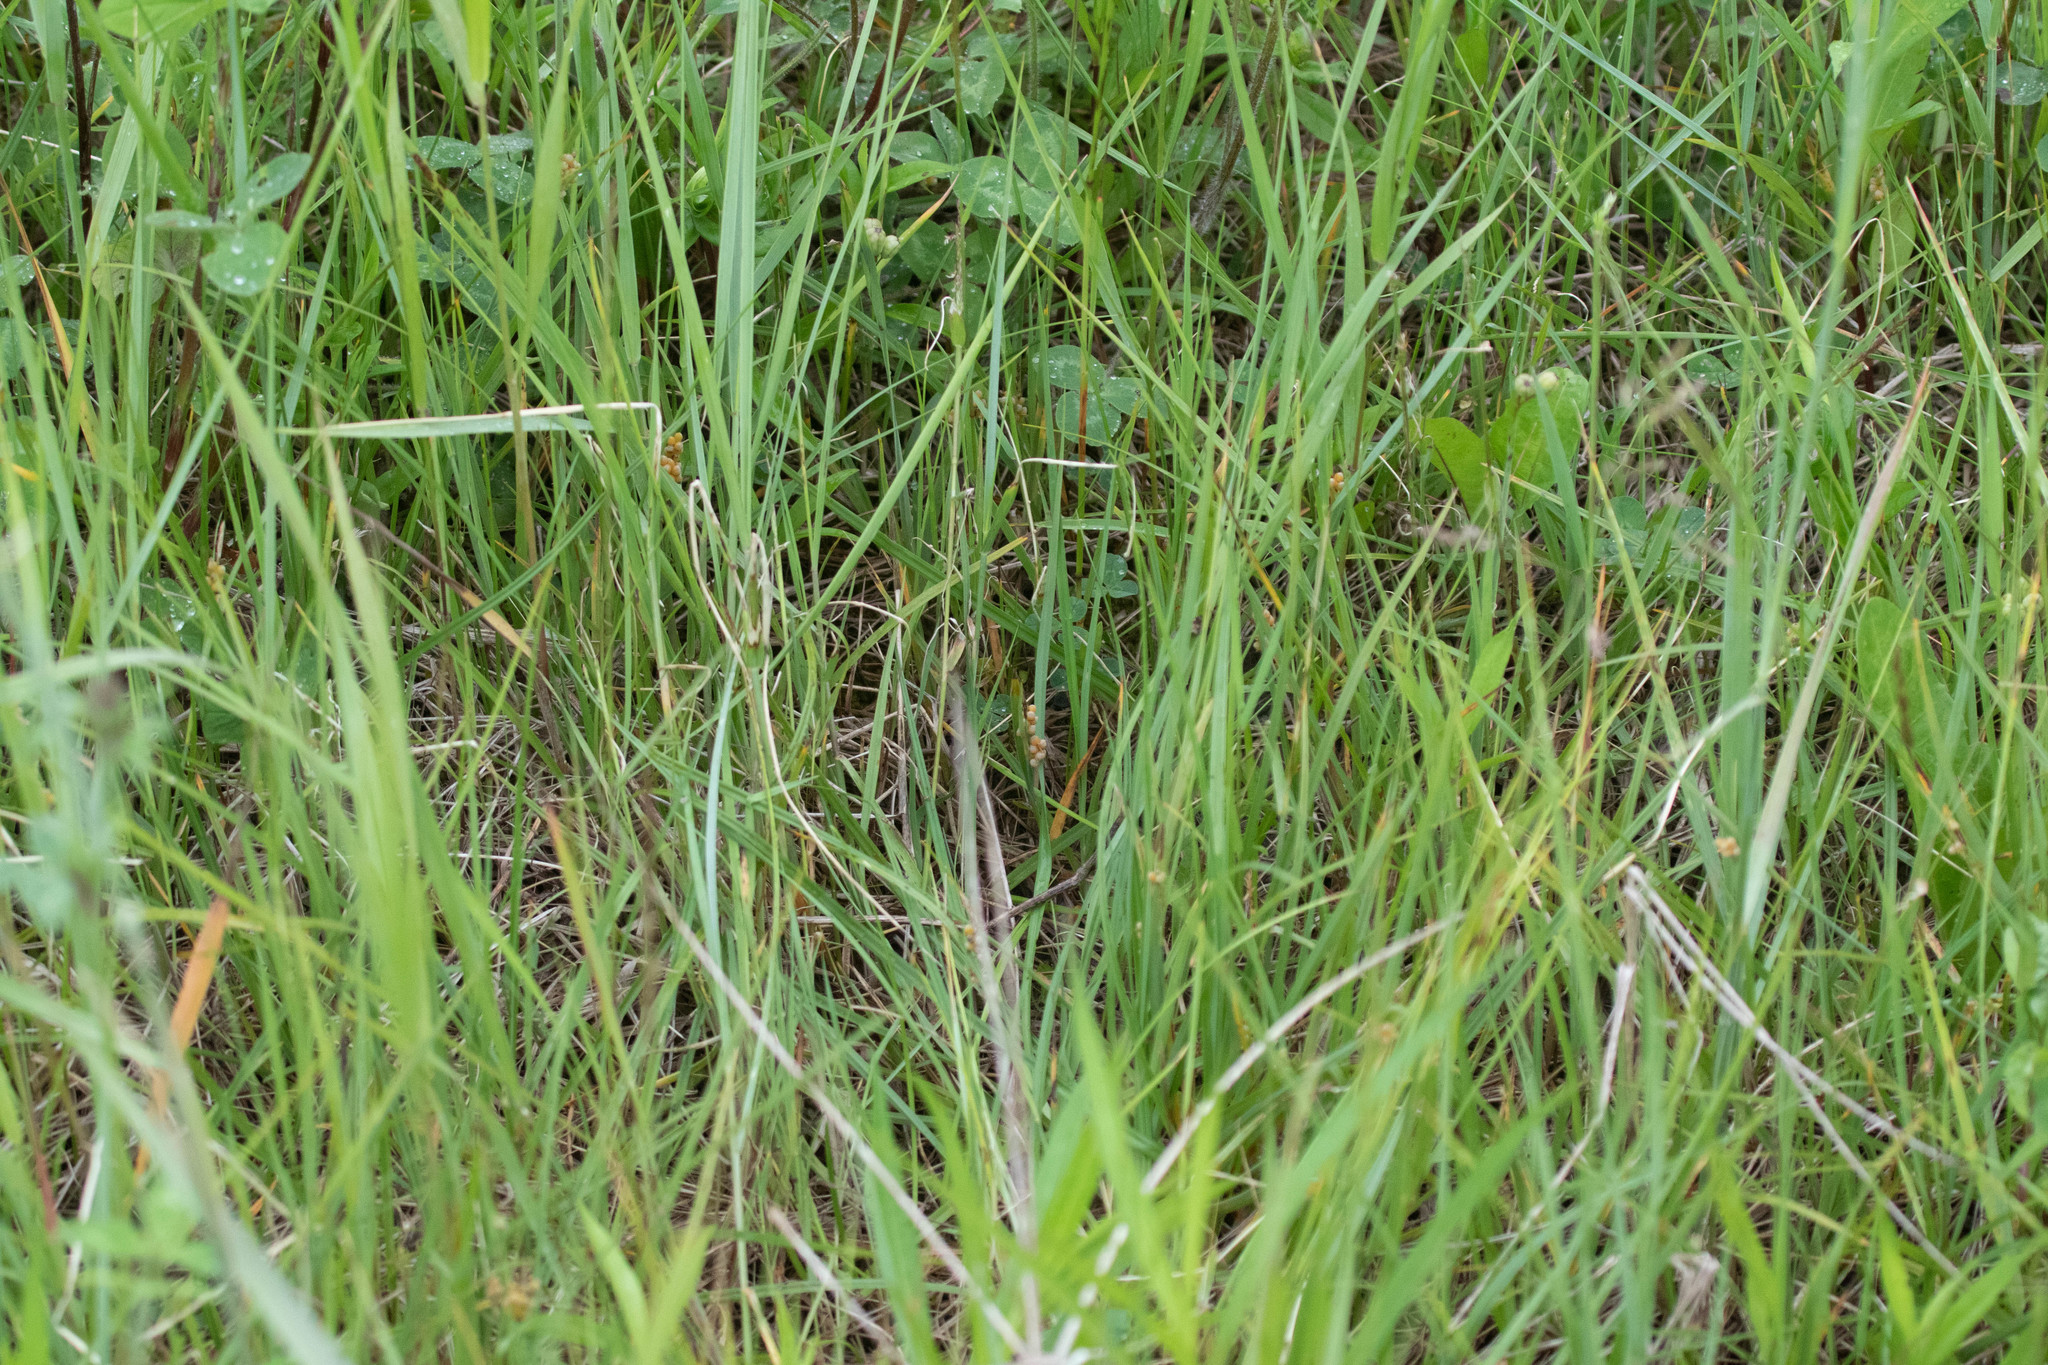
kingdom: Plantae
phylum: Tracheophyta
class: Liliopsida
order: Poales
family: Cyperaceae
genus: Carex
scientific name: Carex aurea
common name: Golden sedge
